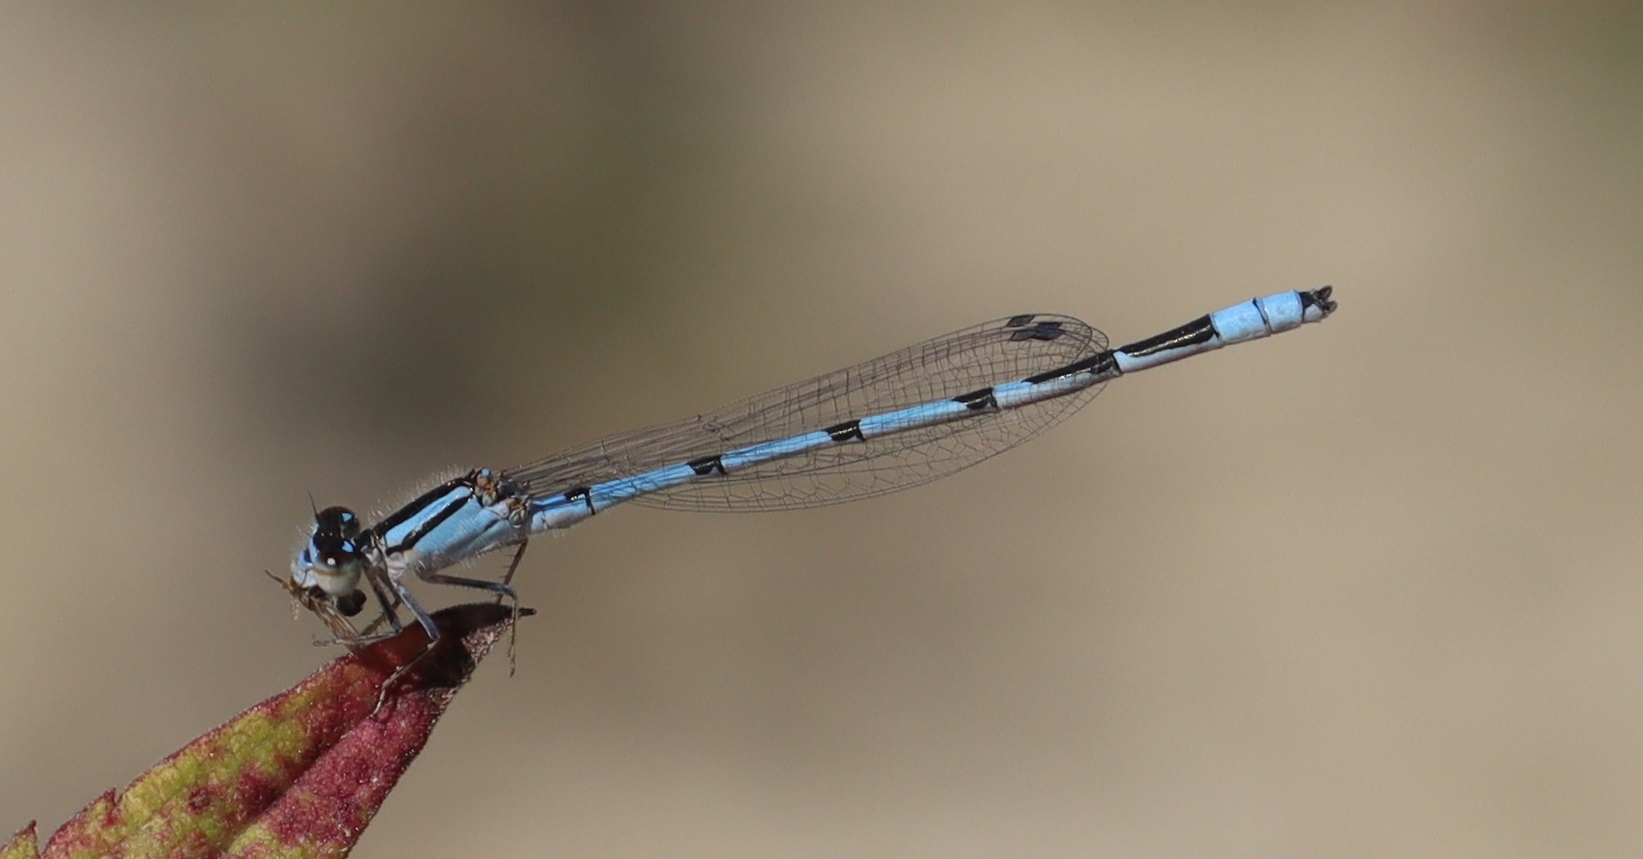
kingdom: Animalia
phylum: Arthropoda
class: Insecta
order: Odonata
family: Coenagrionidae
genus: Enallagma
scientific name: Enallagma civile
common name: Damselfly
